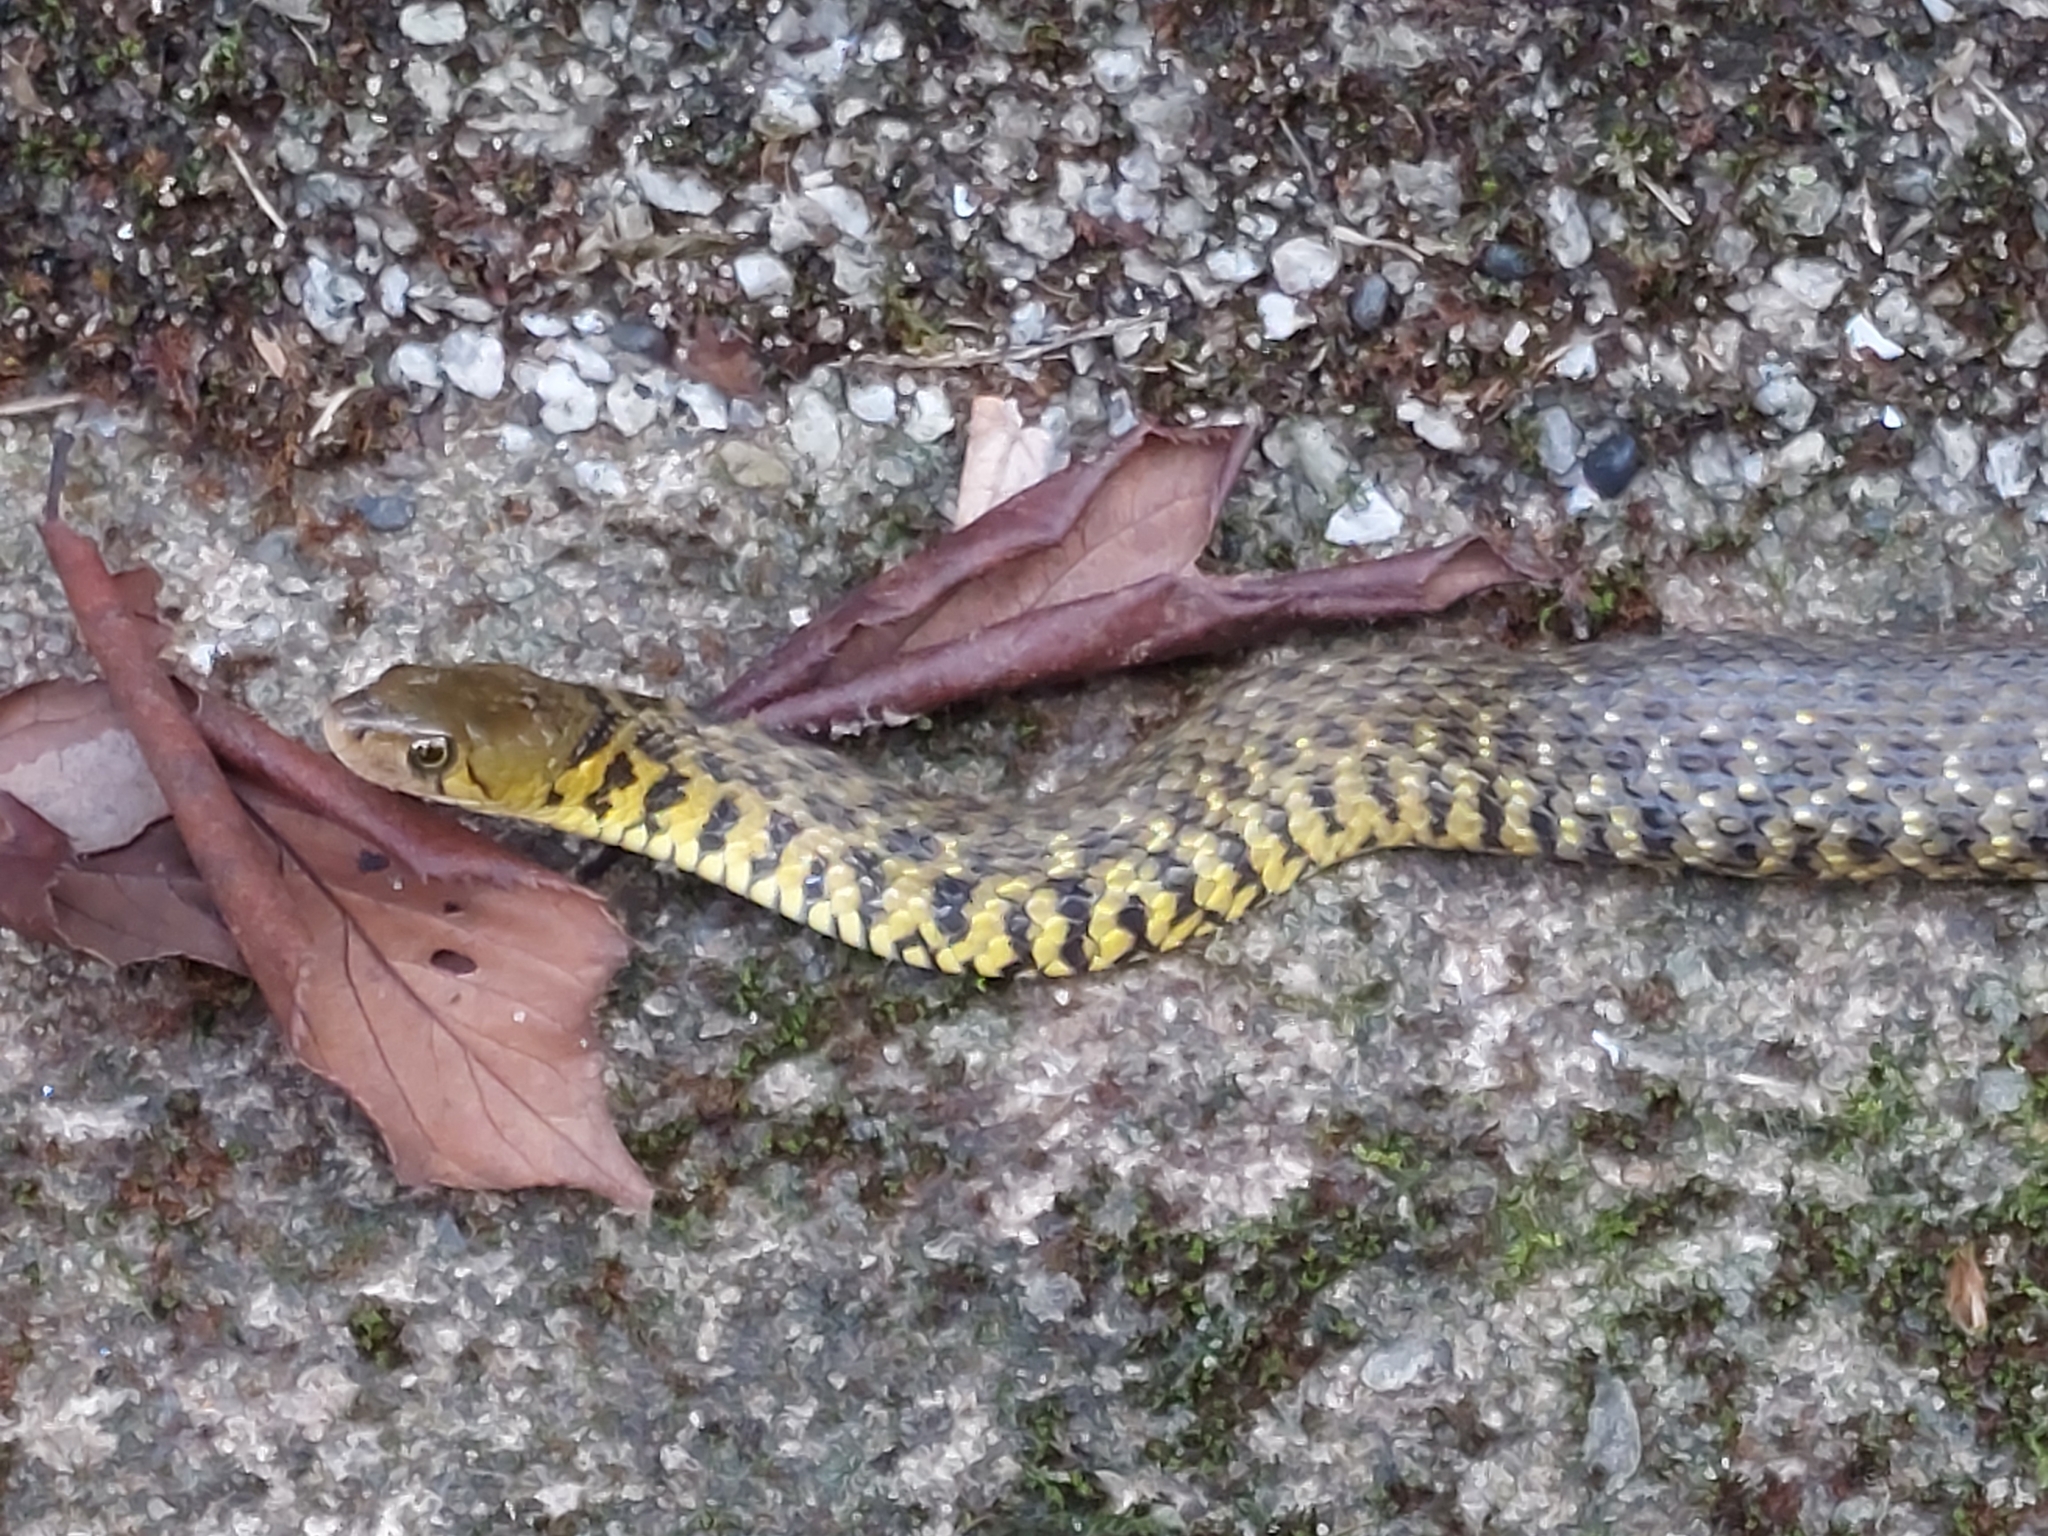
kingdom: Animalia
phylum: Chordata
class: Squamata
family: Colubridae
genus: Fowlea
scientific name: Fowlea flavipunctatus
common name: Yellow-spotted keelback
